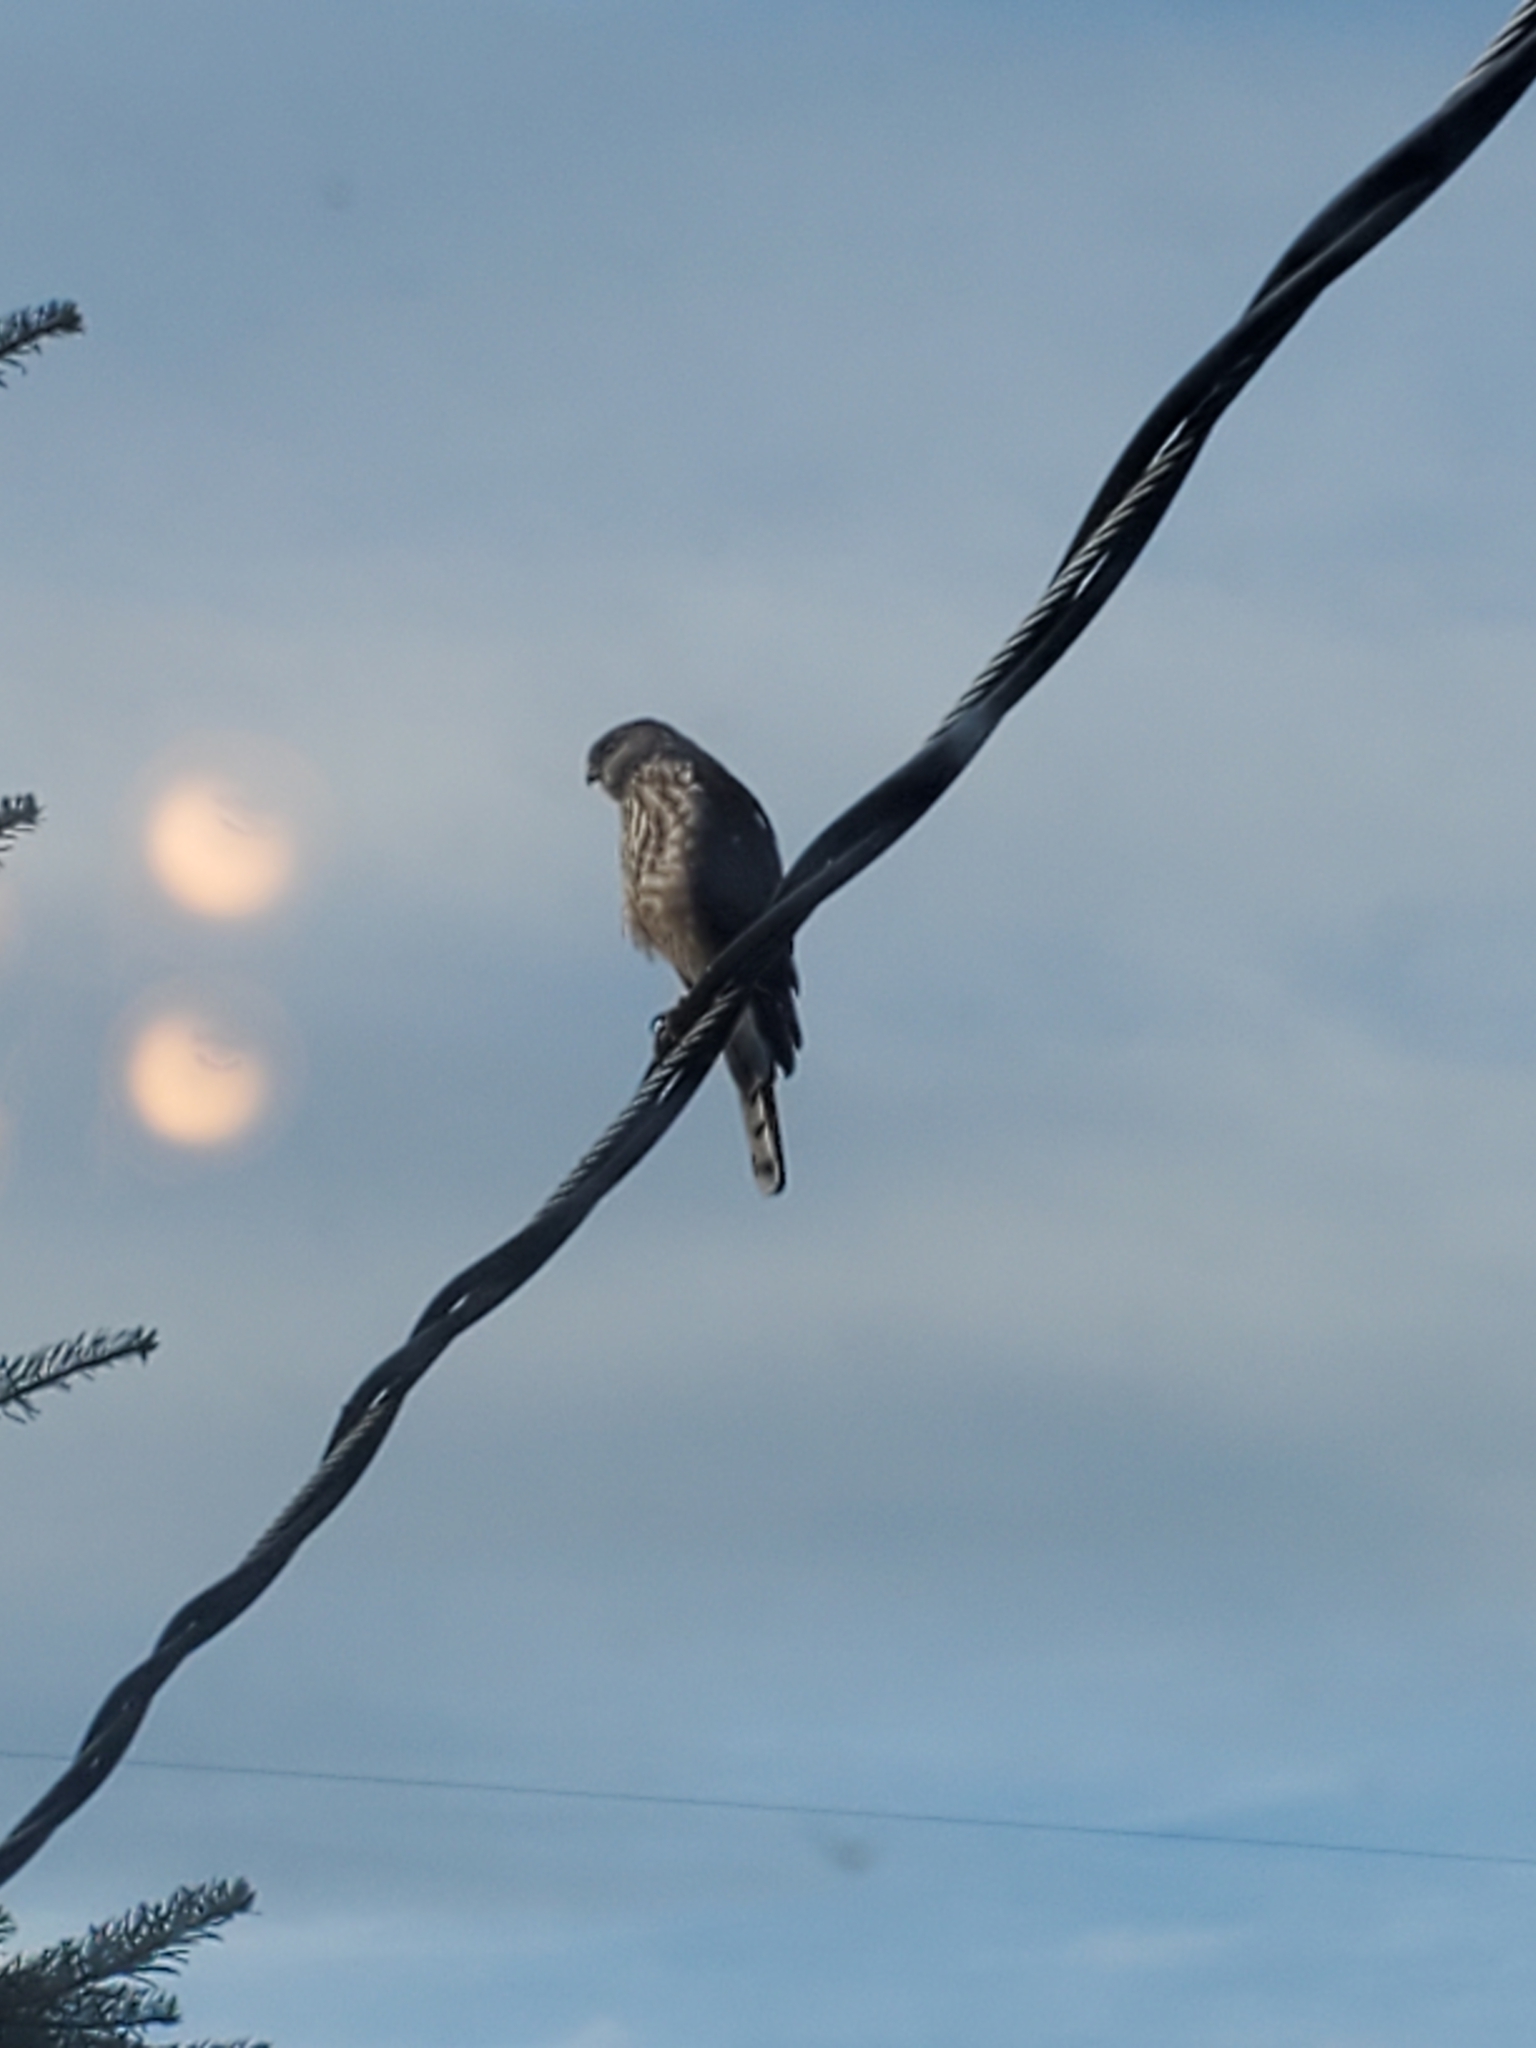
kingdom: Animalia
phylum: Chordata
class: Aves
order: Accipitriformes
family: Accipitridae
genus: Accipiter
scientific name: Accipiter striatus
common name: Sharp-shinned hawk
